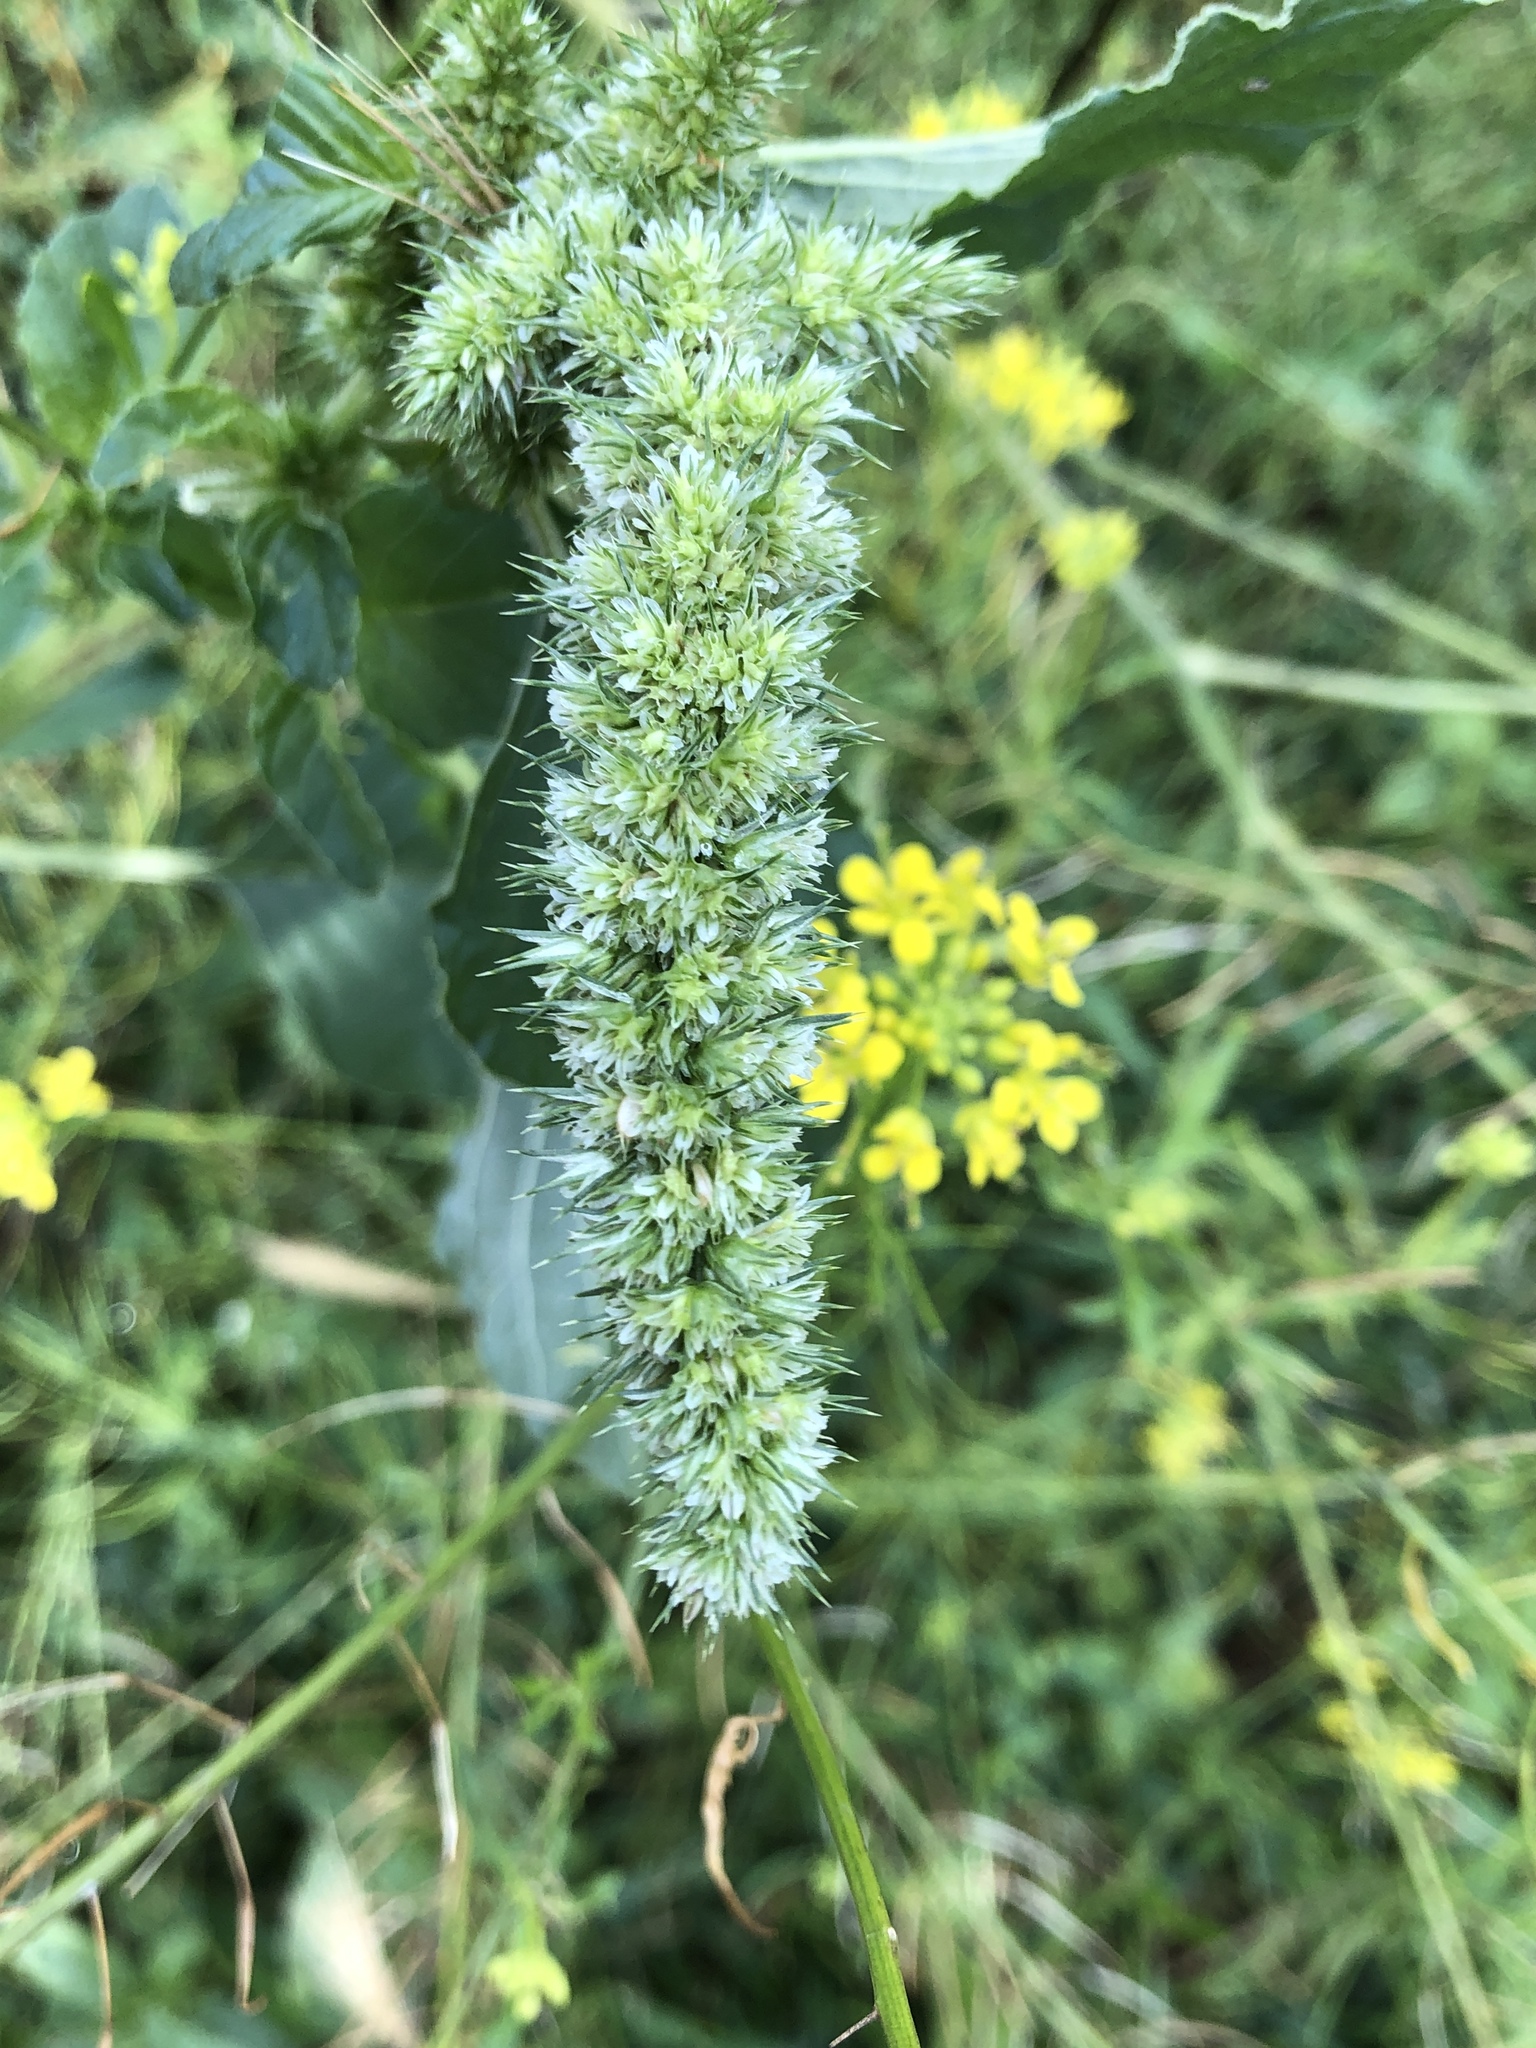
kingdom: Plantae
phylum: Tracheophyta
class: Magnoliopsida
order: Caryophyllales
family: Amaranthaceae
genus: Amaranthus
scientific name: Amaranthus retroflexus
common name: Redroot amaranth
